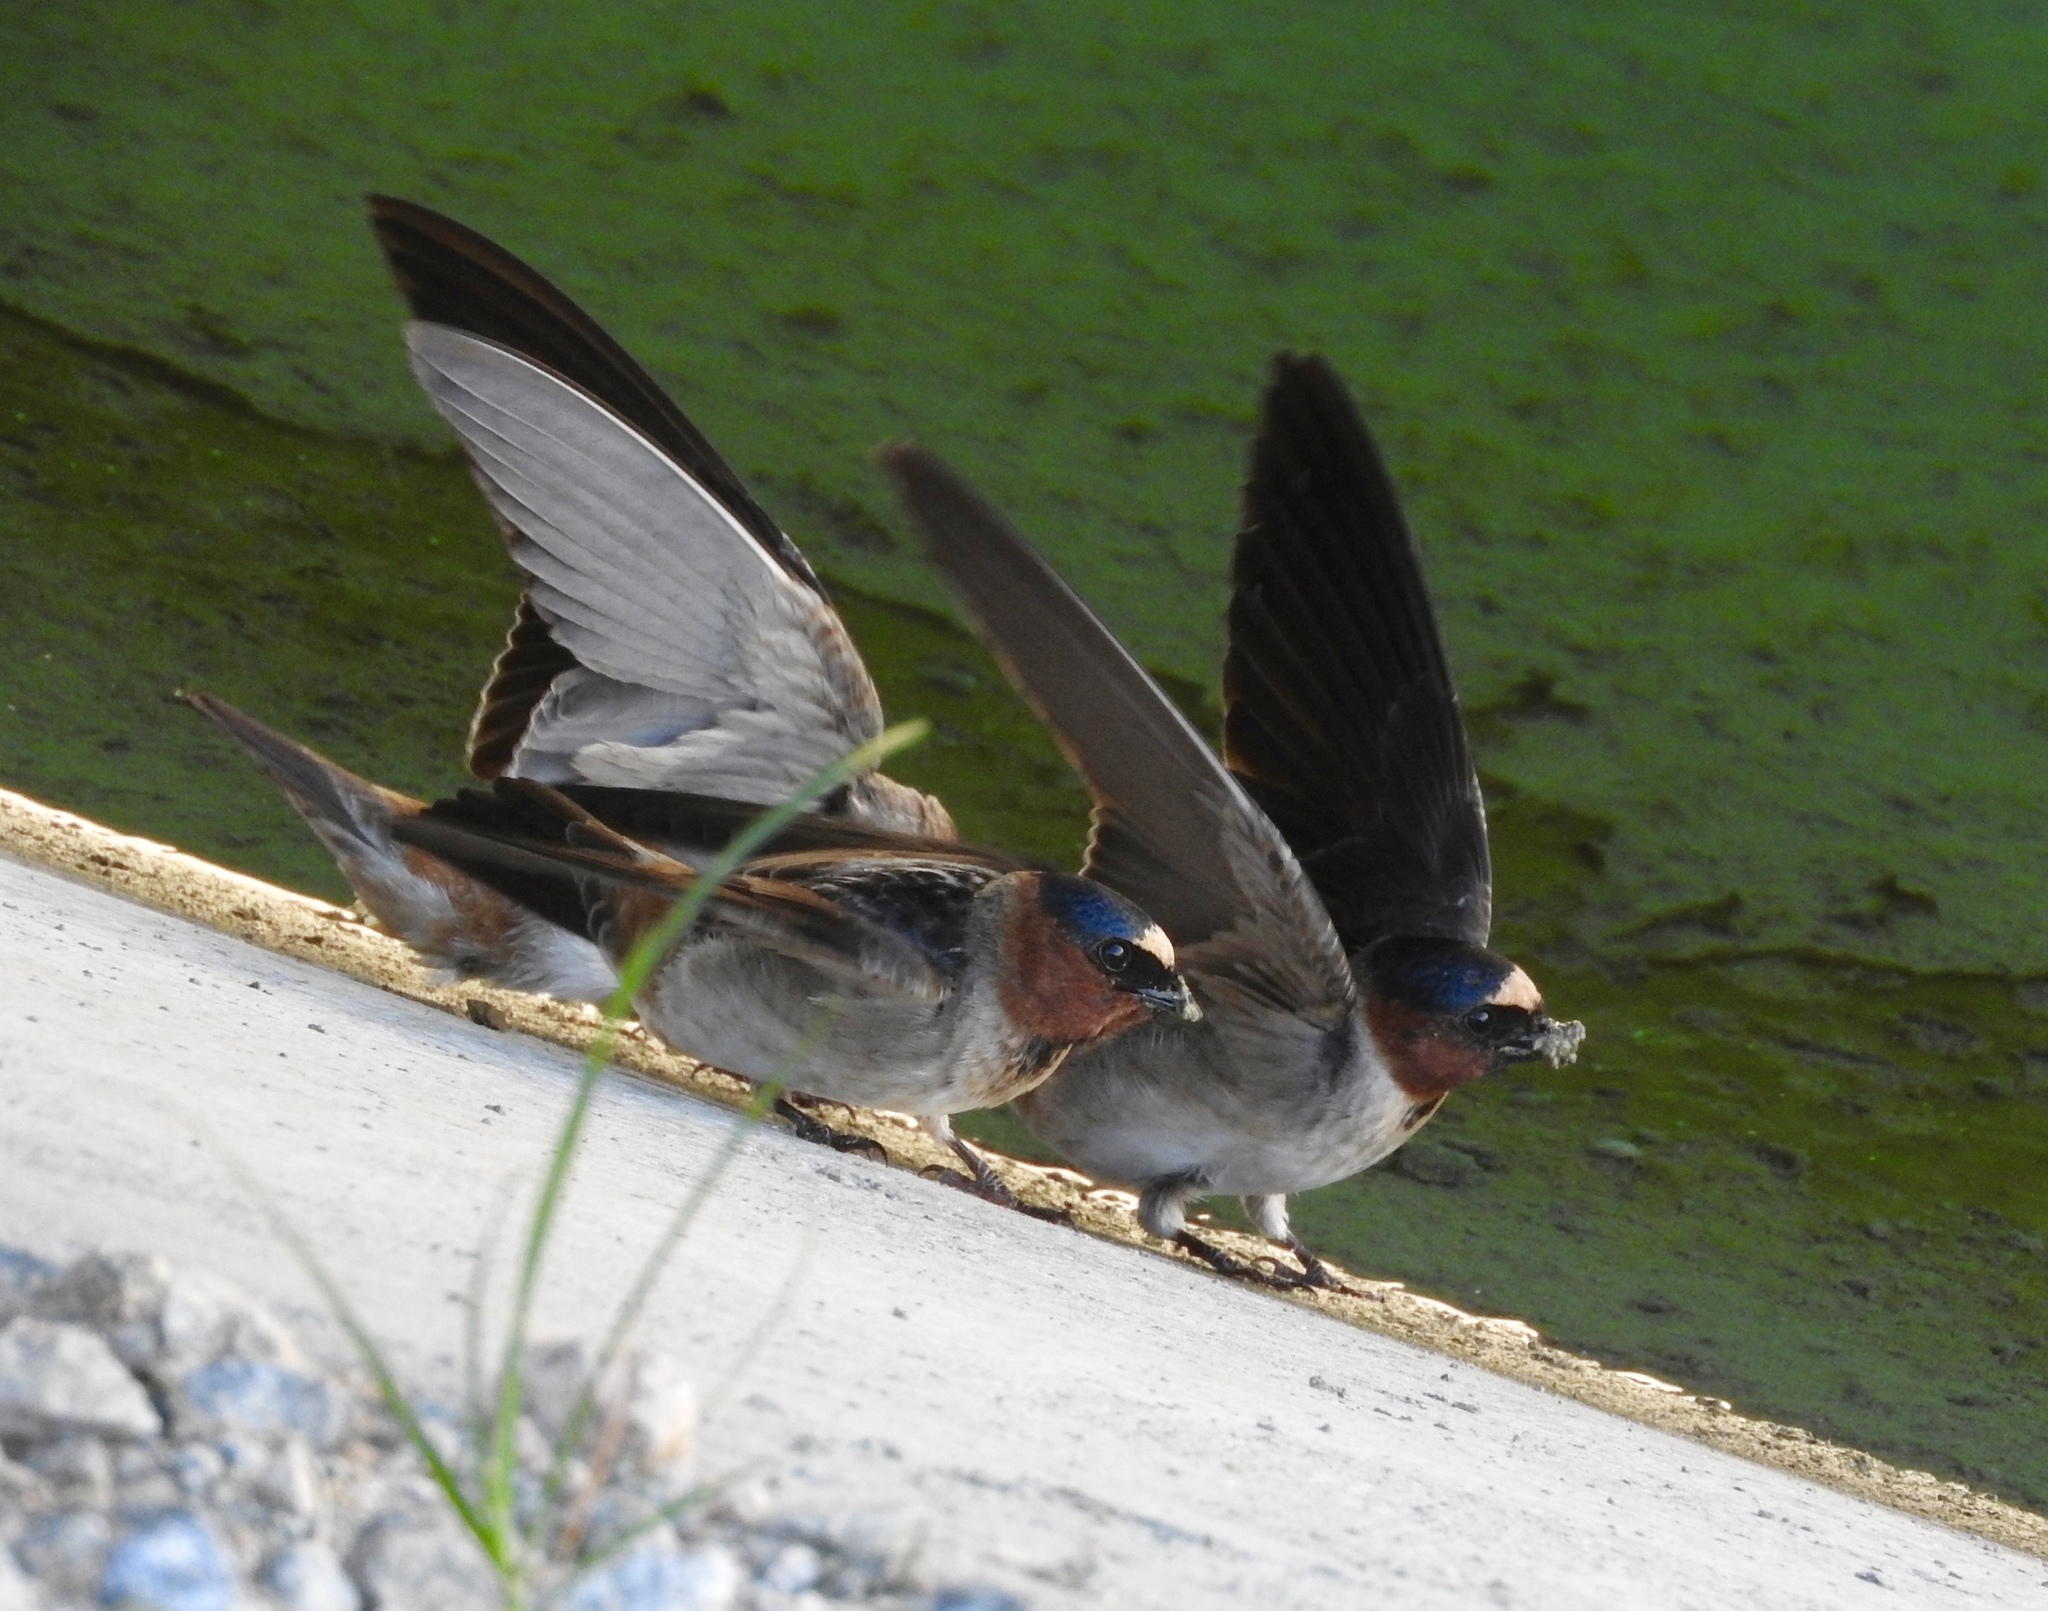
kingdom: Animalia
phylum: Chordata
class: Aves
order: Passeriformes
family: Hirundinidae
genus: Petrochelidon
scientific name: Petrochelidon pyrrhonota
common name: American cliff swallow
